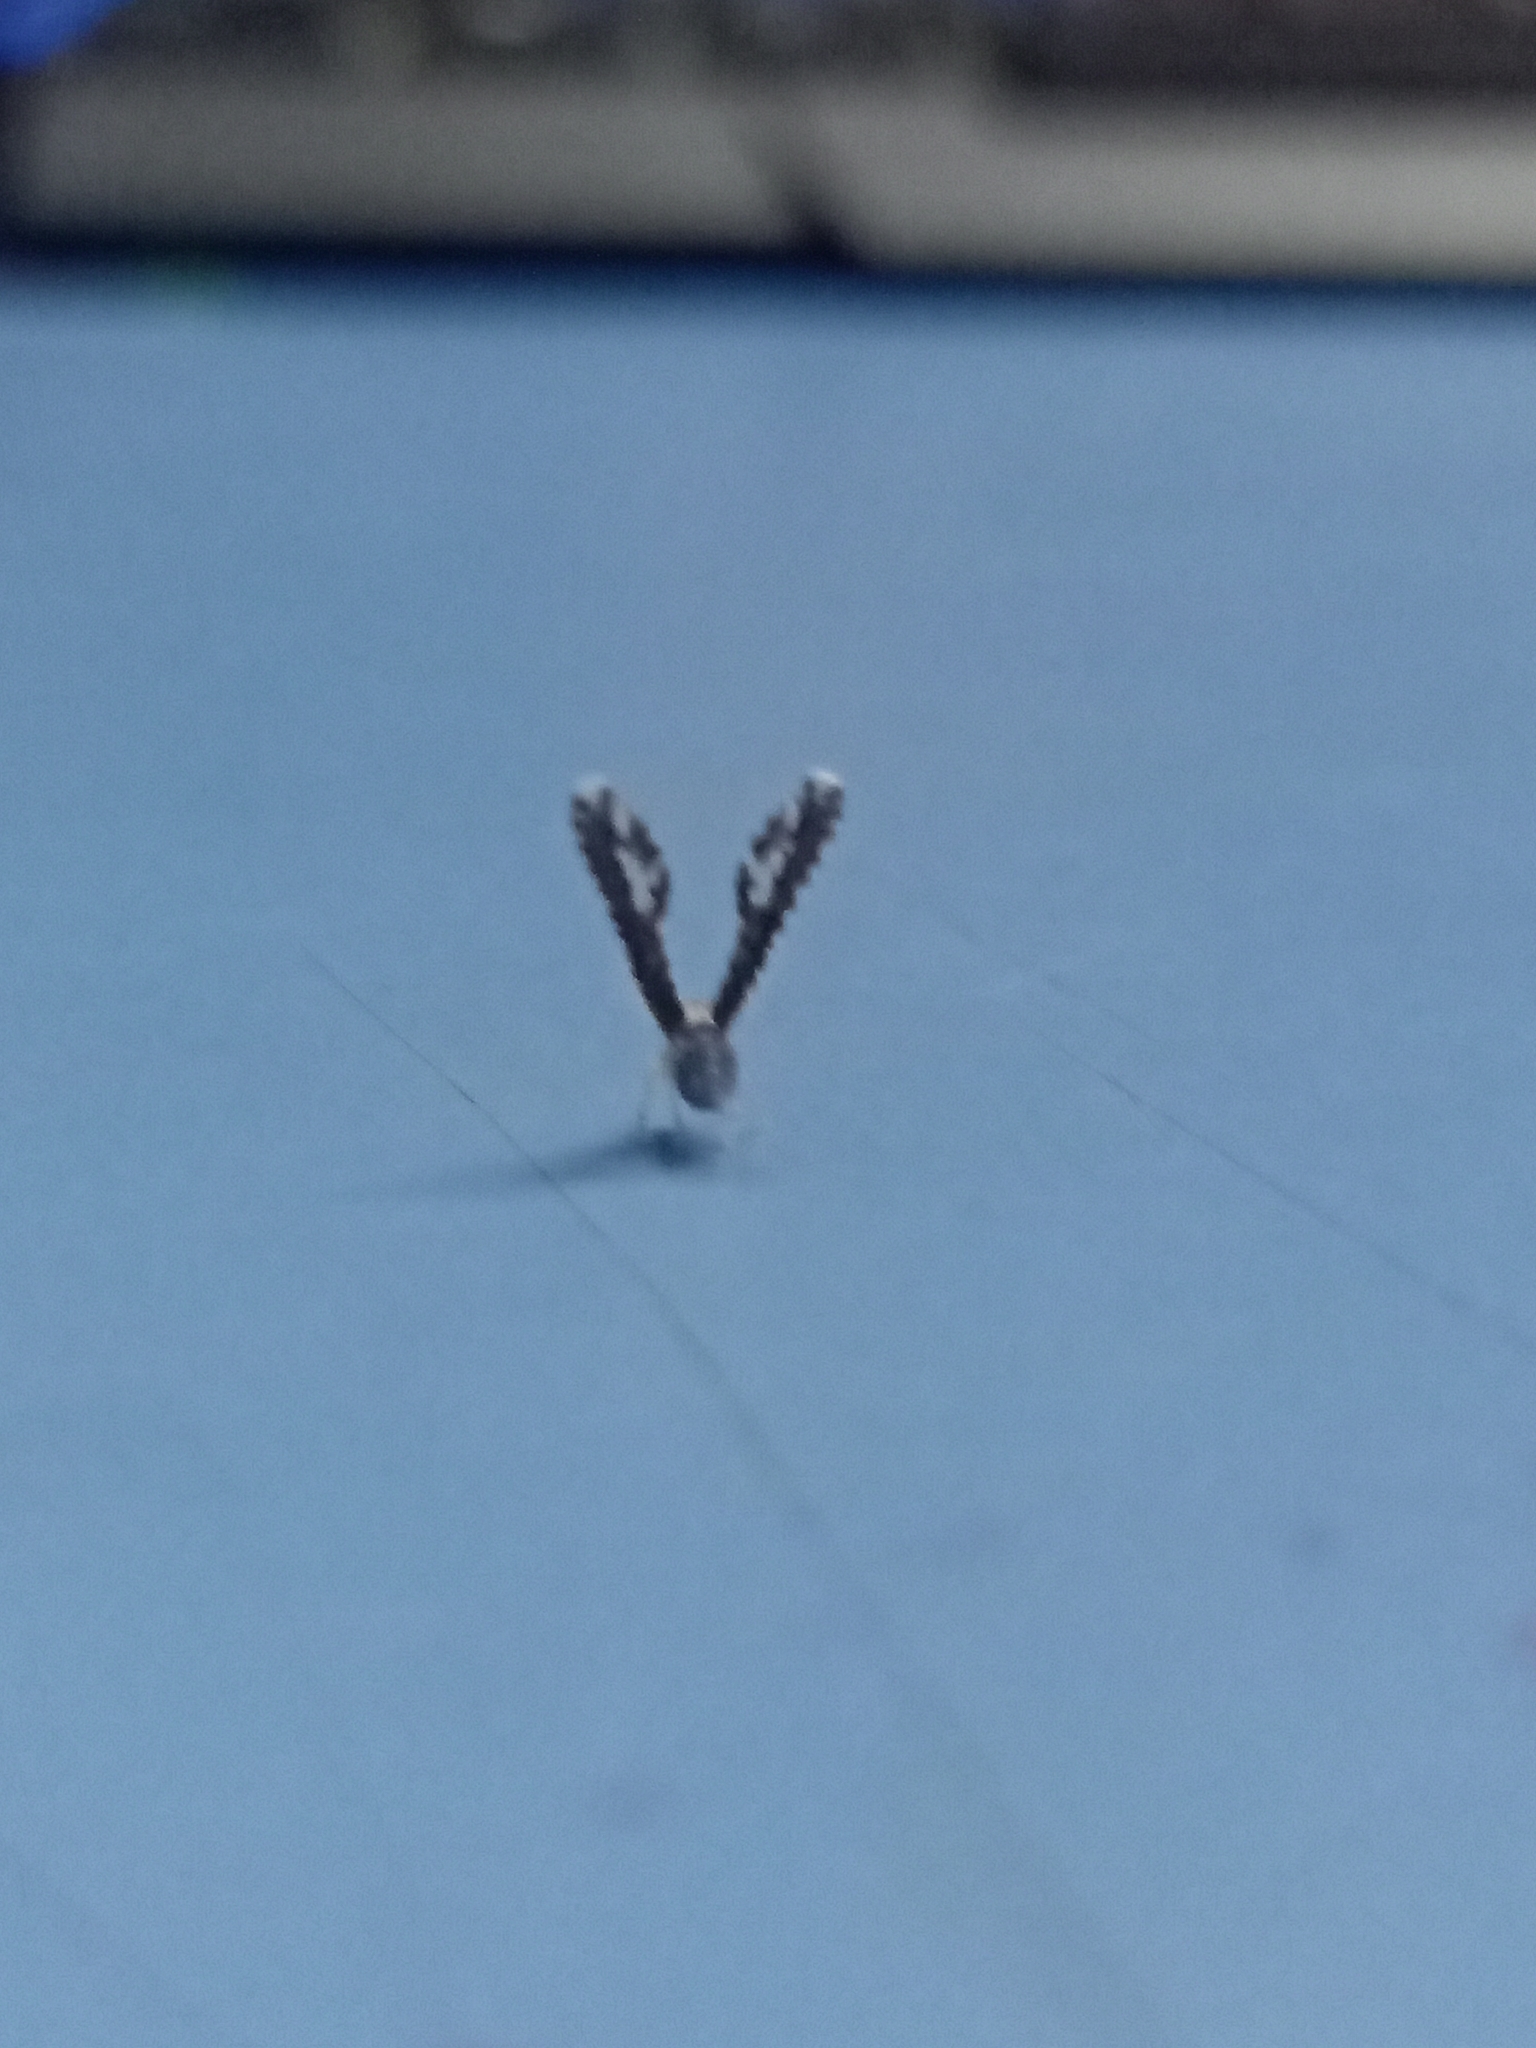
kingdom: Animalia
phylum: Arthropoda
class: Insecta
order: Hemiptera
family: Derbidae
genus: Proutista
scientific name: Proutista moesta
